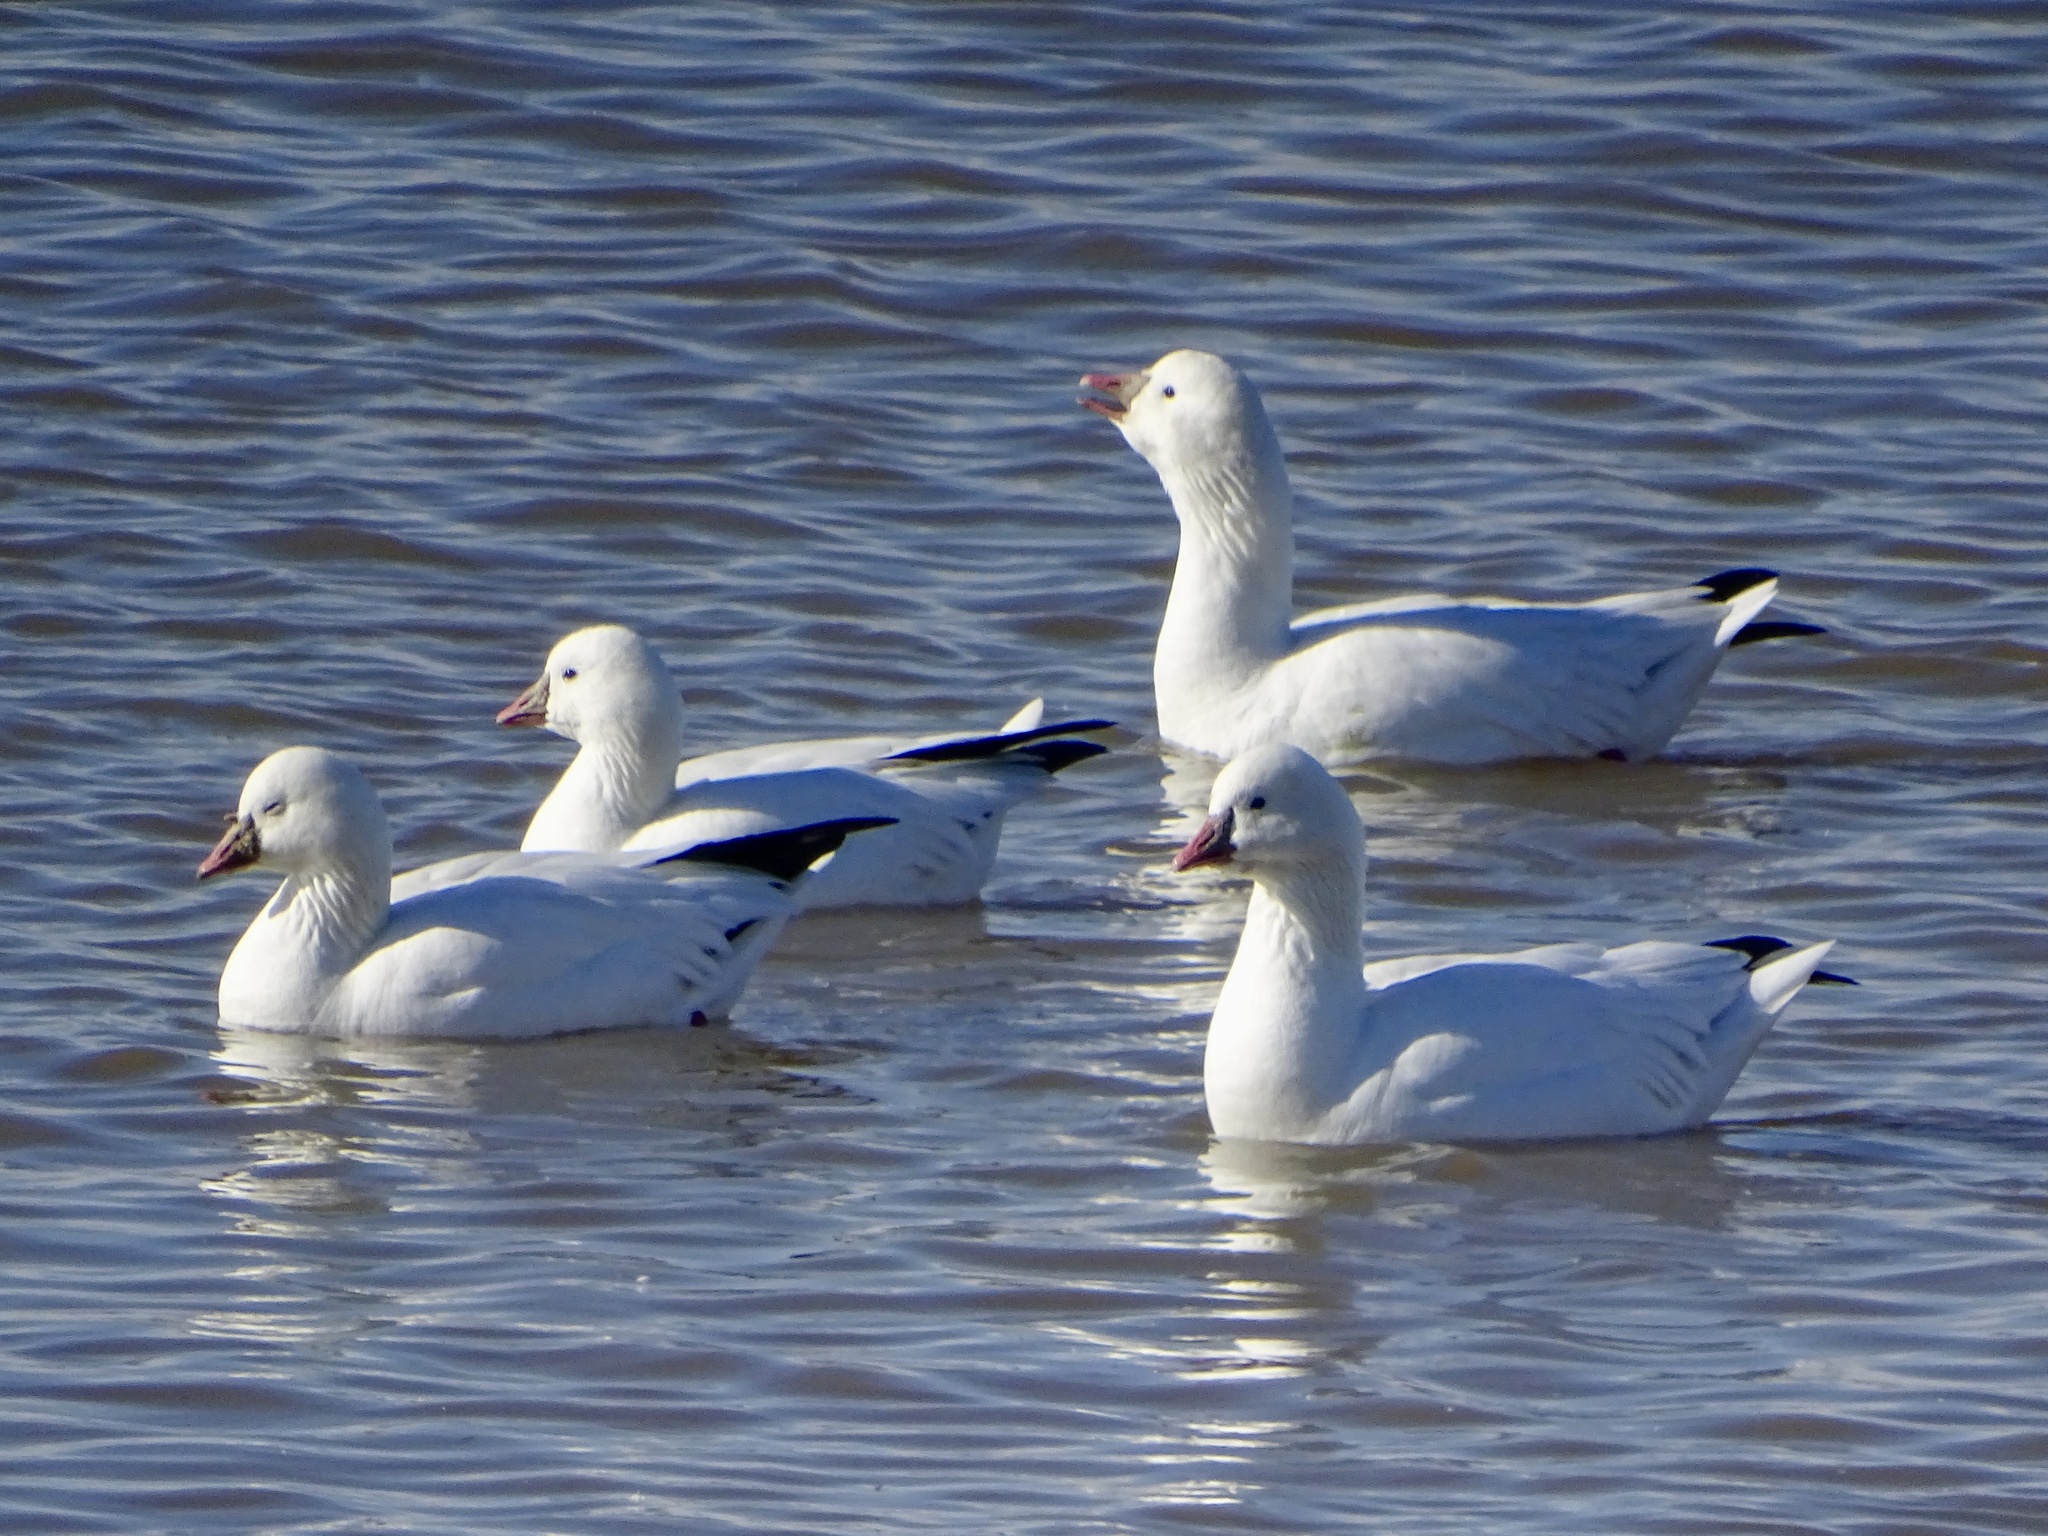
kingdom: Animalia
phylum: Chordata
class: Aves
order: Anseriformes
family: Anatidae
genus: Anser
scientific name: Anser rossii
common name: Ross's goose
